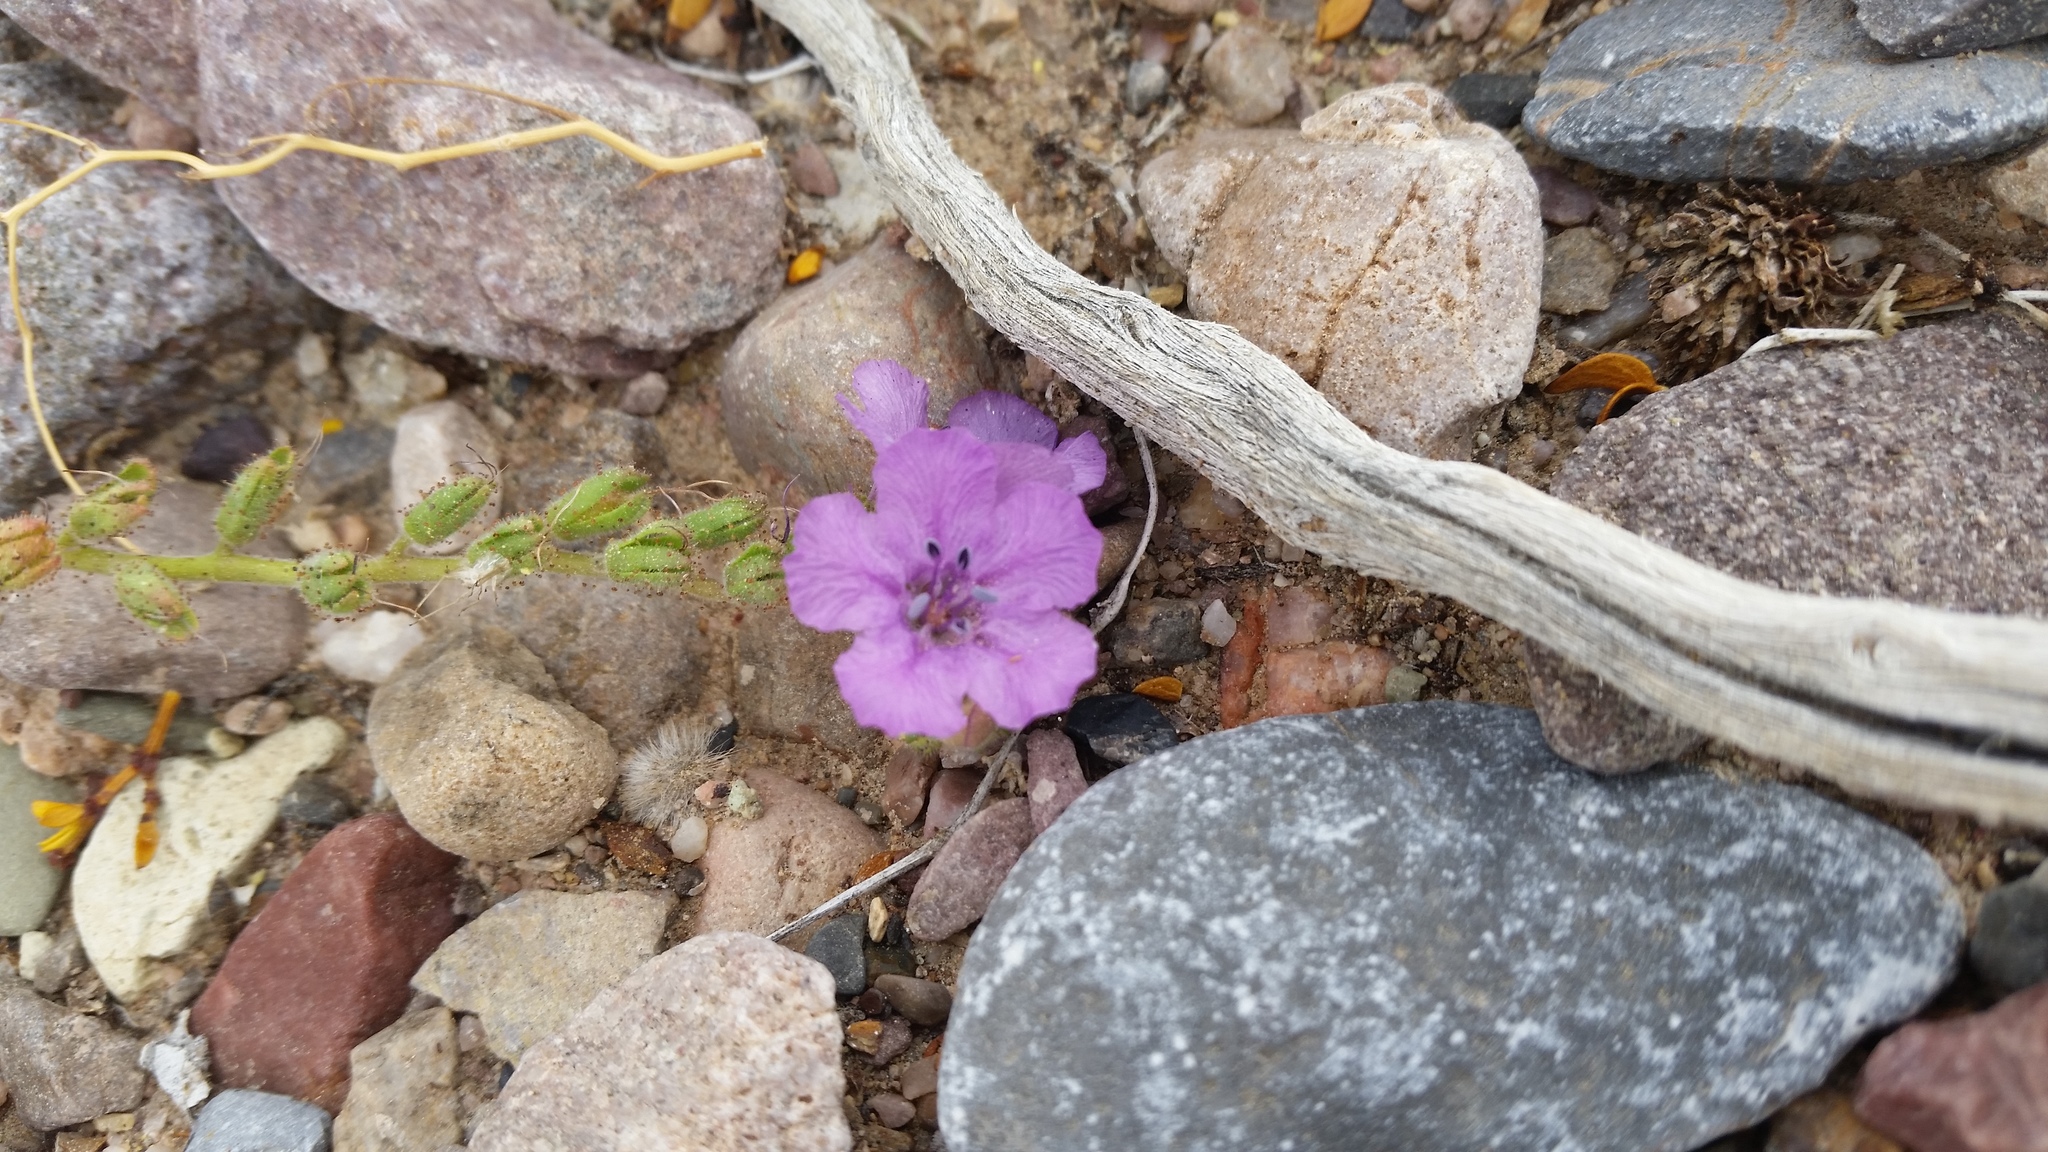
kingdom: Plantae
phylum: Tracheophyta
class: Magnoliopsida
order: Boraginales
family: Hydrophyllaceae
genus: Phacelia
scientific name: Phacelia calthifolia
